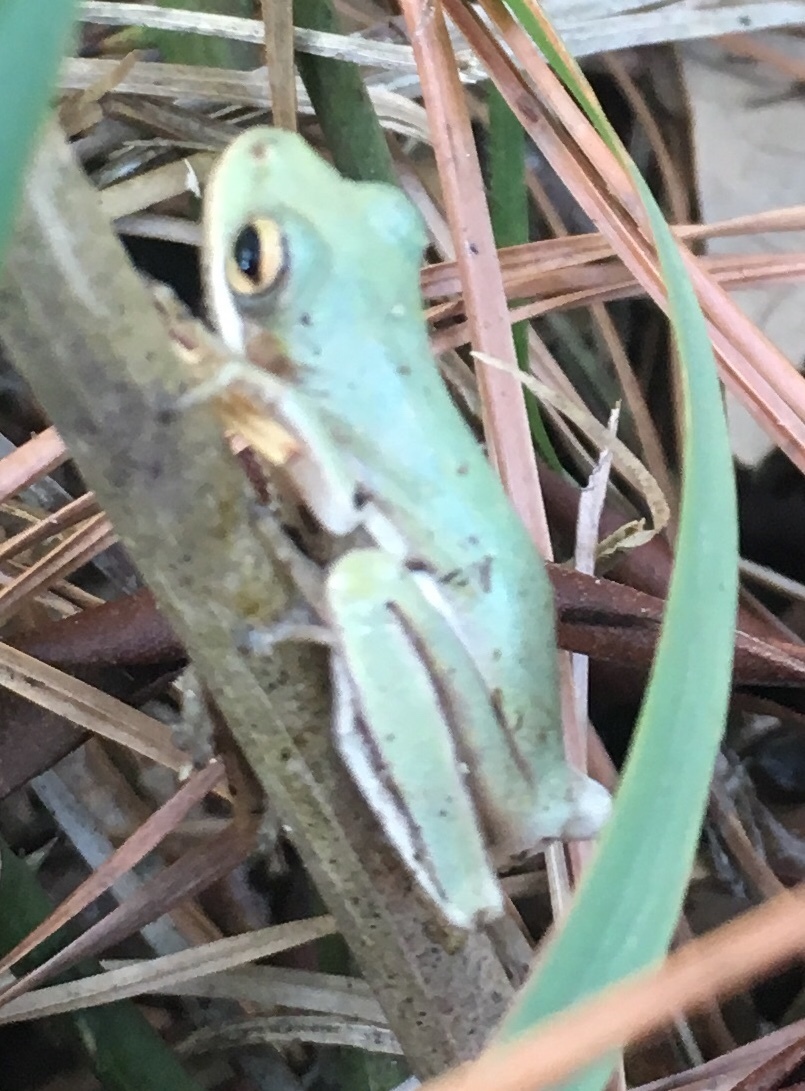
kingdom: Animalia
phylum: Chordata
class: Amphibia
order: Anura
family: Hylidae
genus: Dryophytes
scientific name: Dryophytes cinereus
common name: Green treefrog
